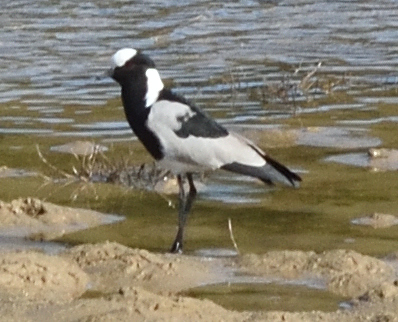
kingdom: Animalia
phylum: Chordata
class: Aves
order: Charadriiformes
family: Charadriidae
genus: Vanellus
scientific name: Vanellus armatus
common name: Blacksmith lapwing
